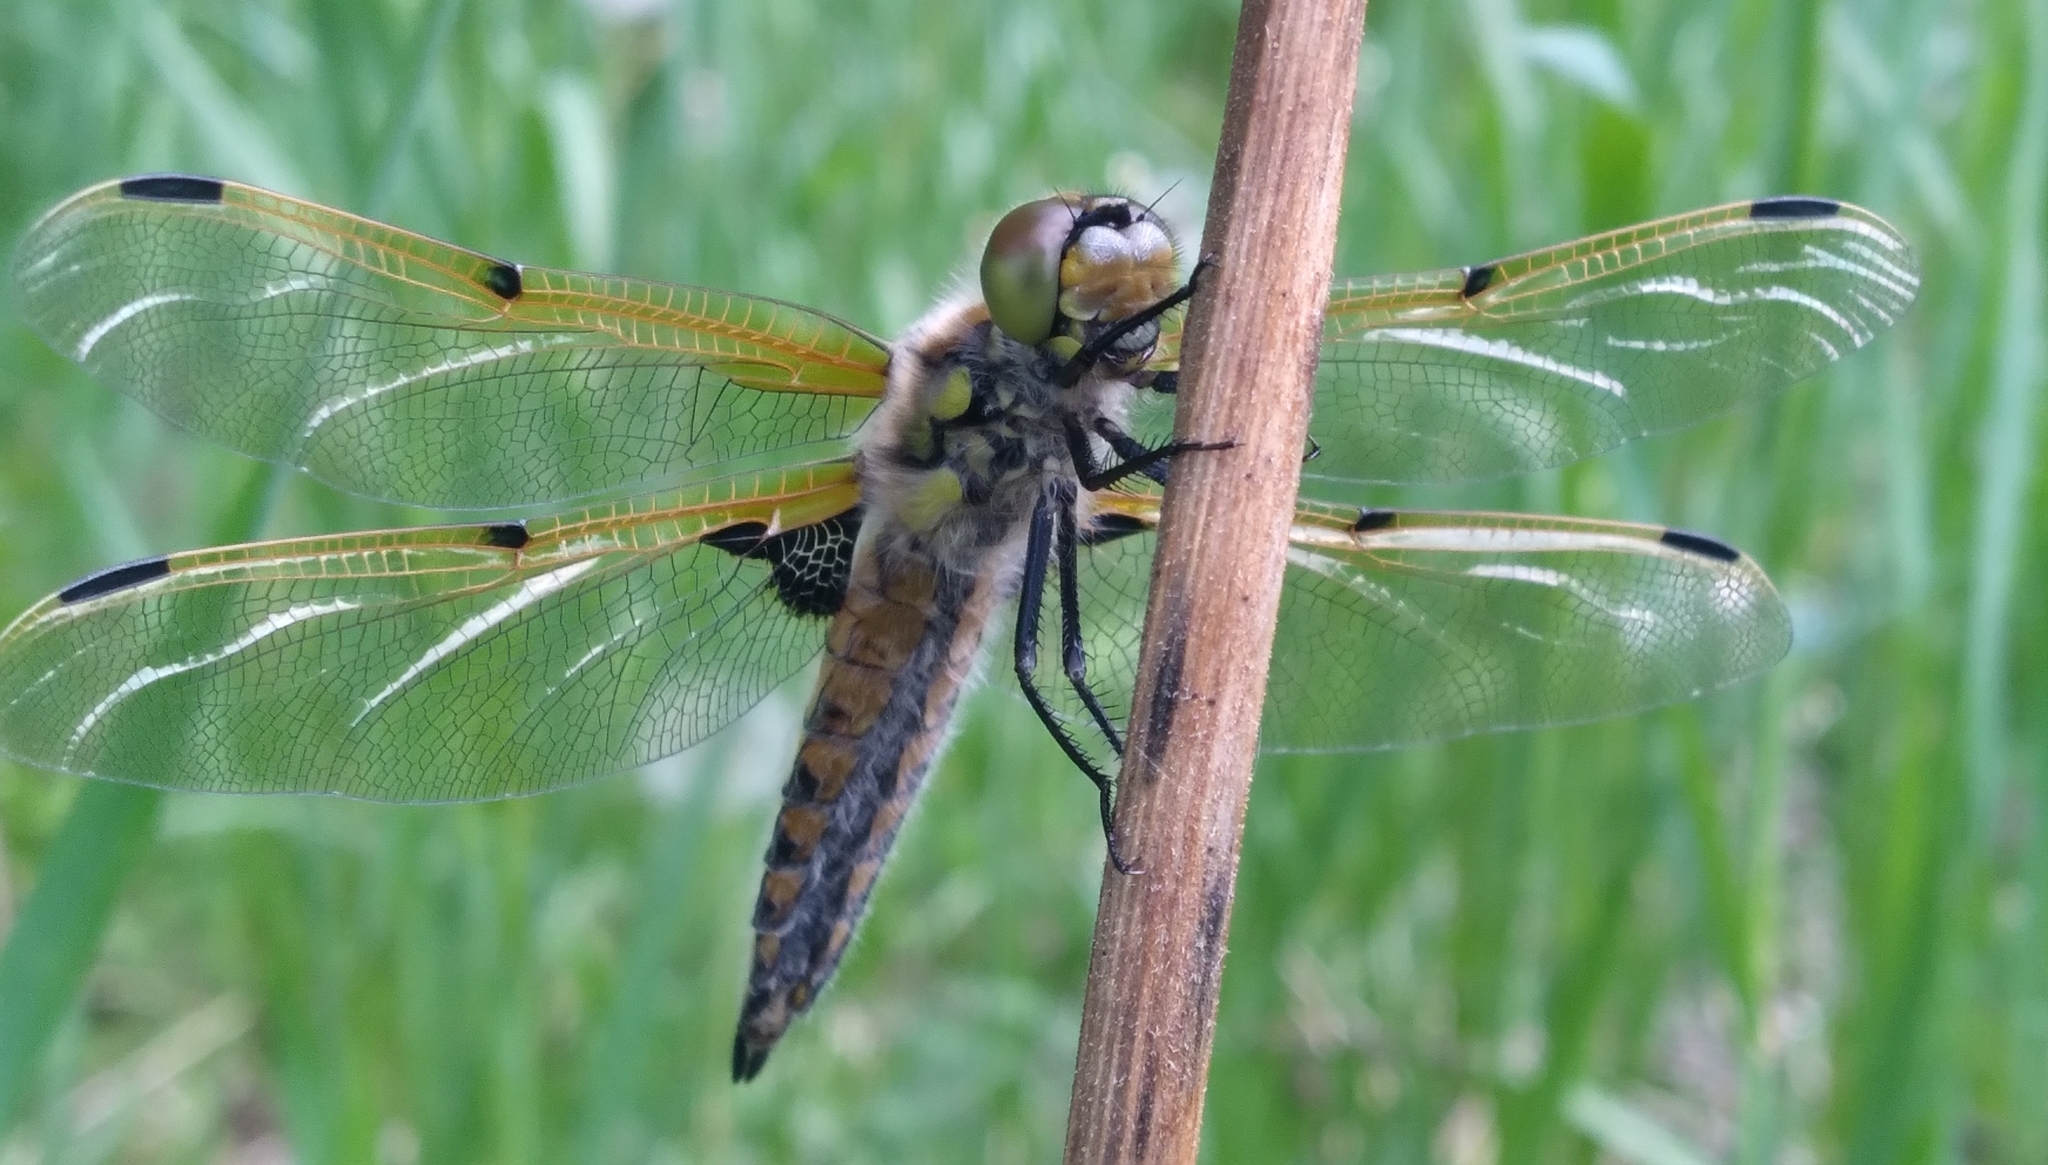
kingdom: Animalia
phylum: Arthropoda
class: Insecta
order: Odonata
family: Libellulidae
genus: Libellula
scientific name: Libellula quadrimaculata
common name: Four-spotted chaser
